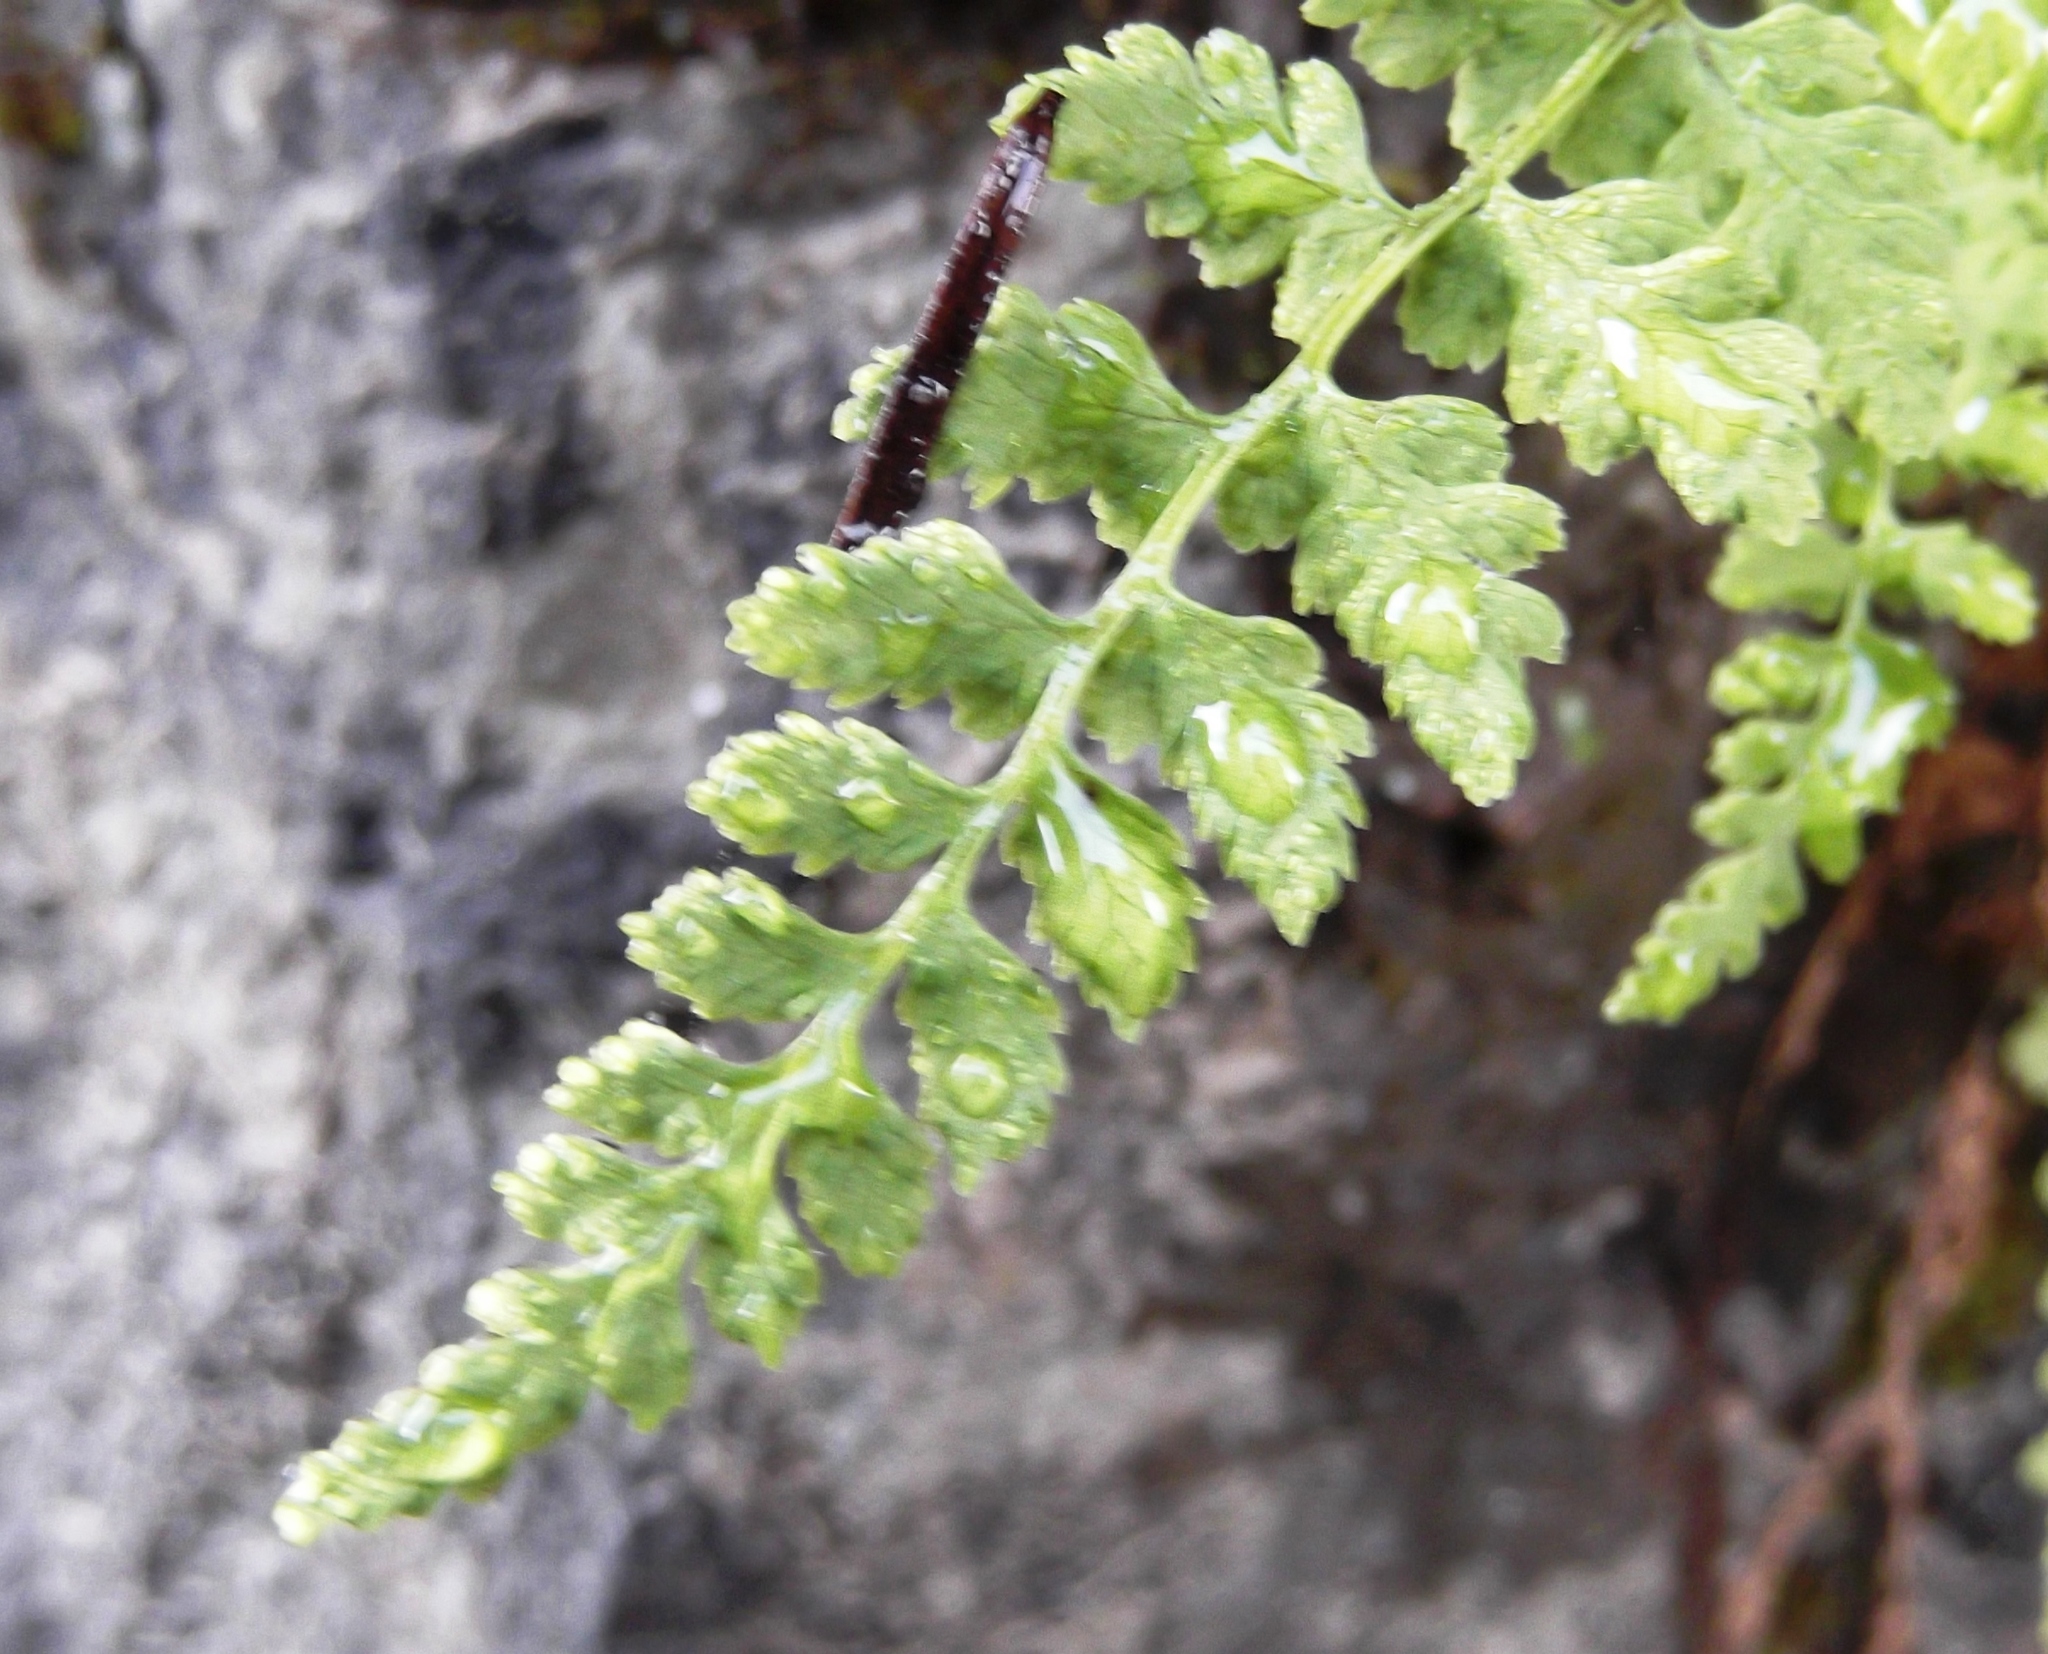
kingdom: Plantae
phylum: Tracheophyta
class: Polypodiopsida
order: Polypodiales
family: Cystopteridaceae
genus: Cystopteris
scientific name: Cystopteris fragilis
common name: Brittle bladder fern
